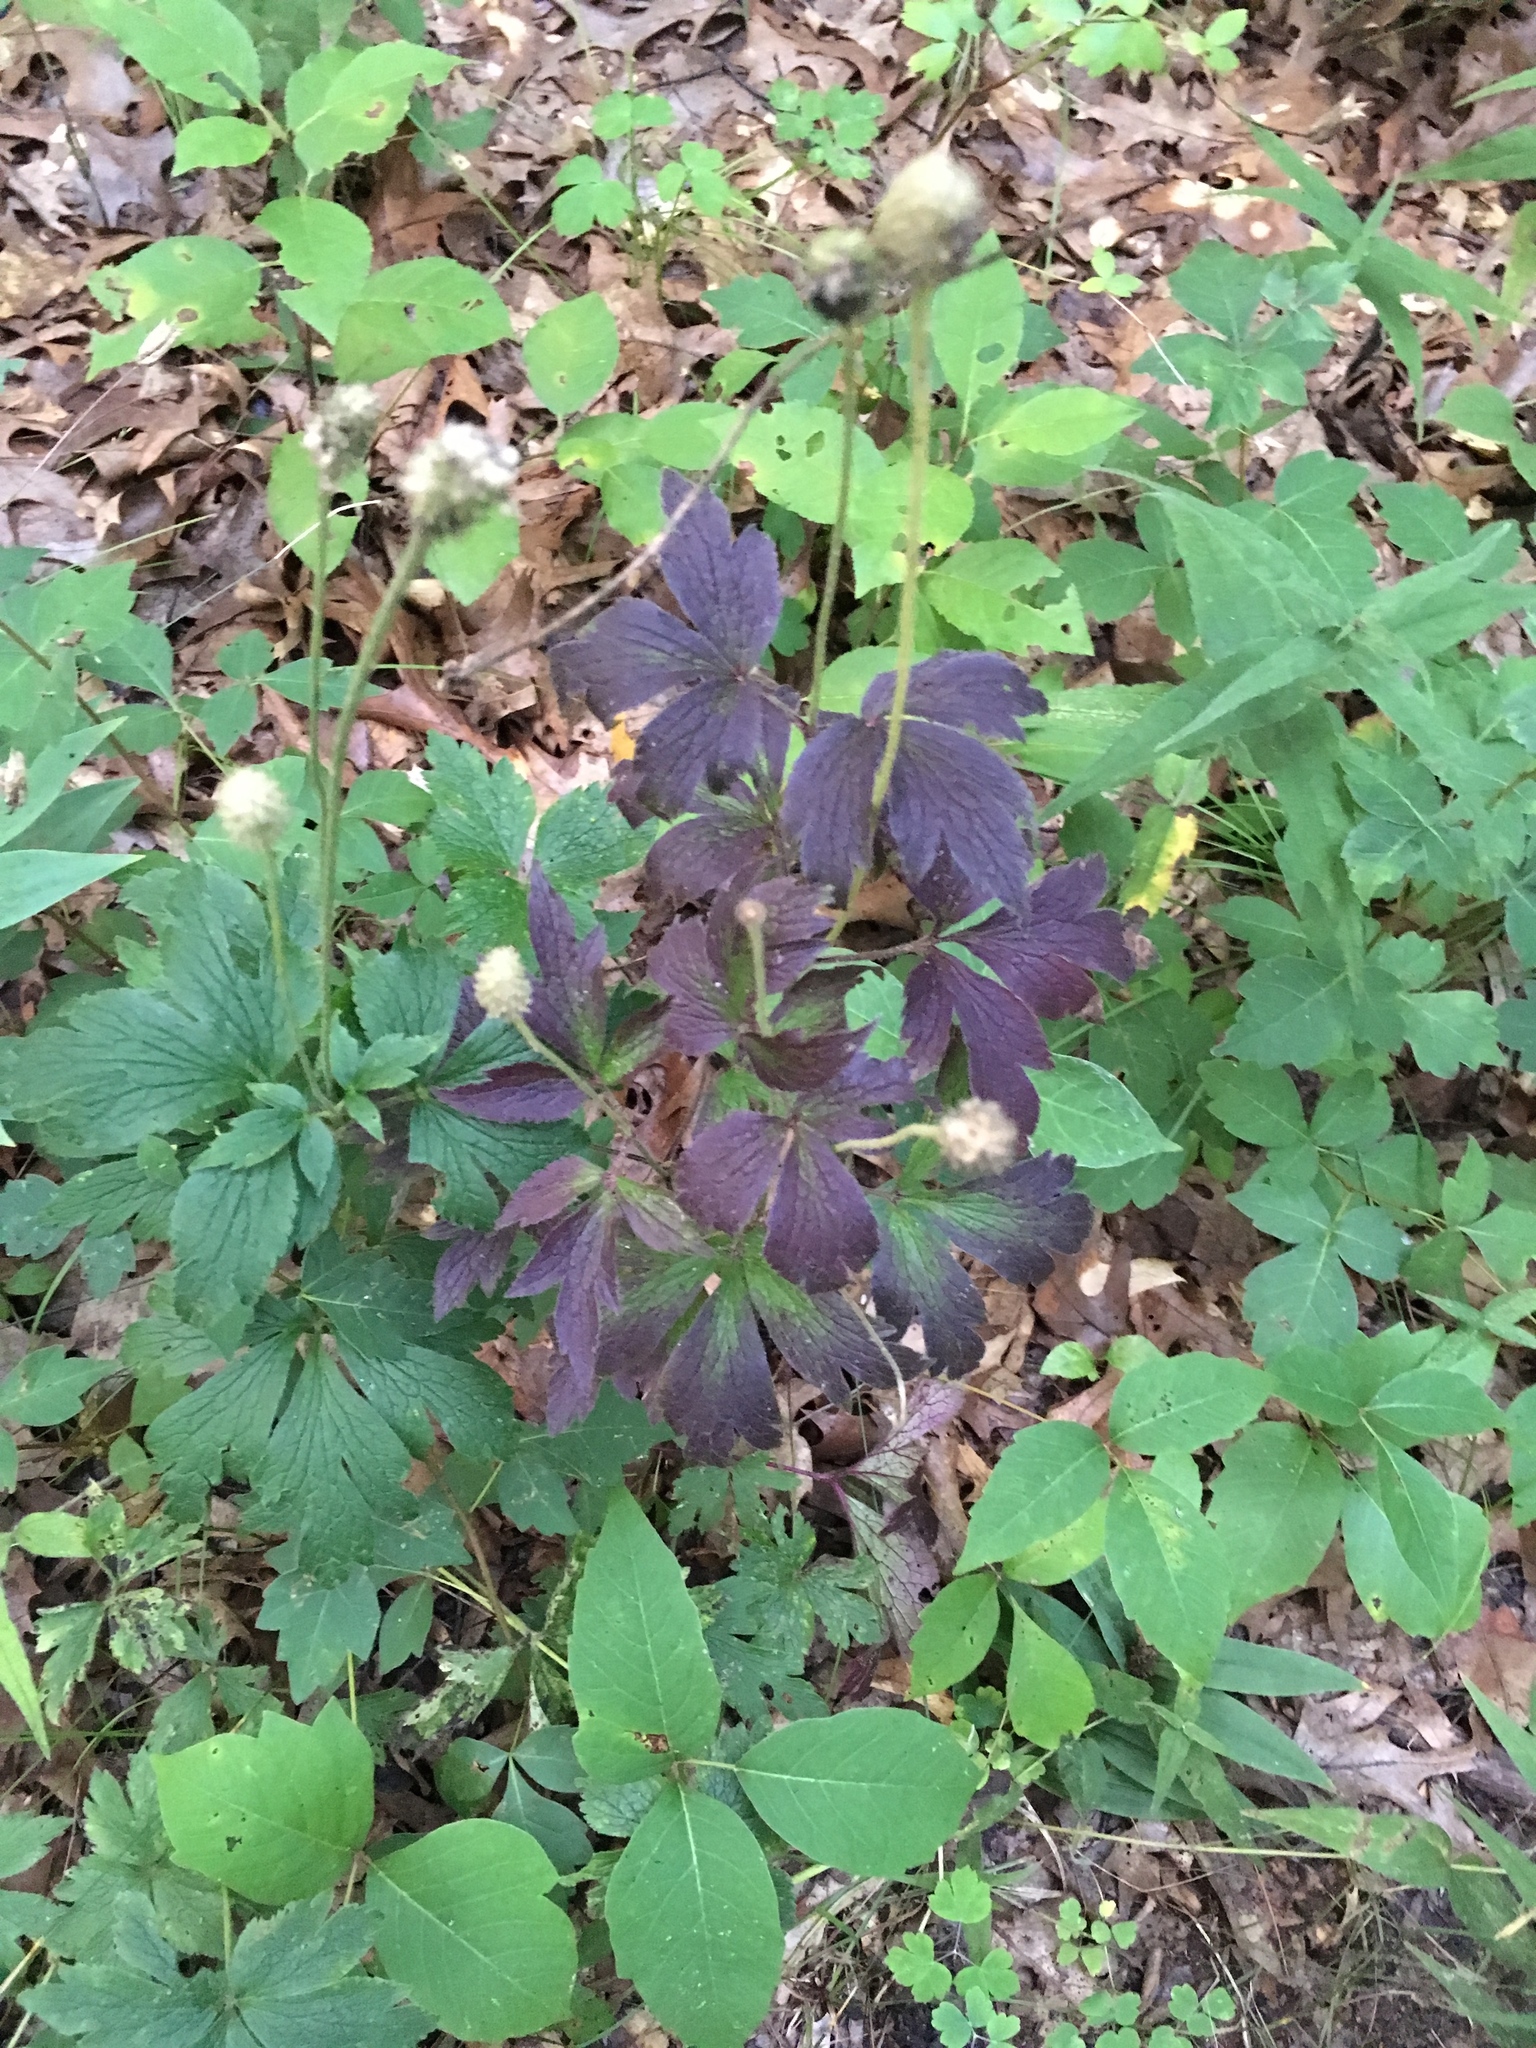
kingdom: Plantae
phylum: Tracheophyta
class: Magnoliopsida
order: Ranunculales
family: Ranunculaceae
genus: Anemone
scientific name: Anemone virginiana
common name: Tall anemone
